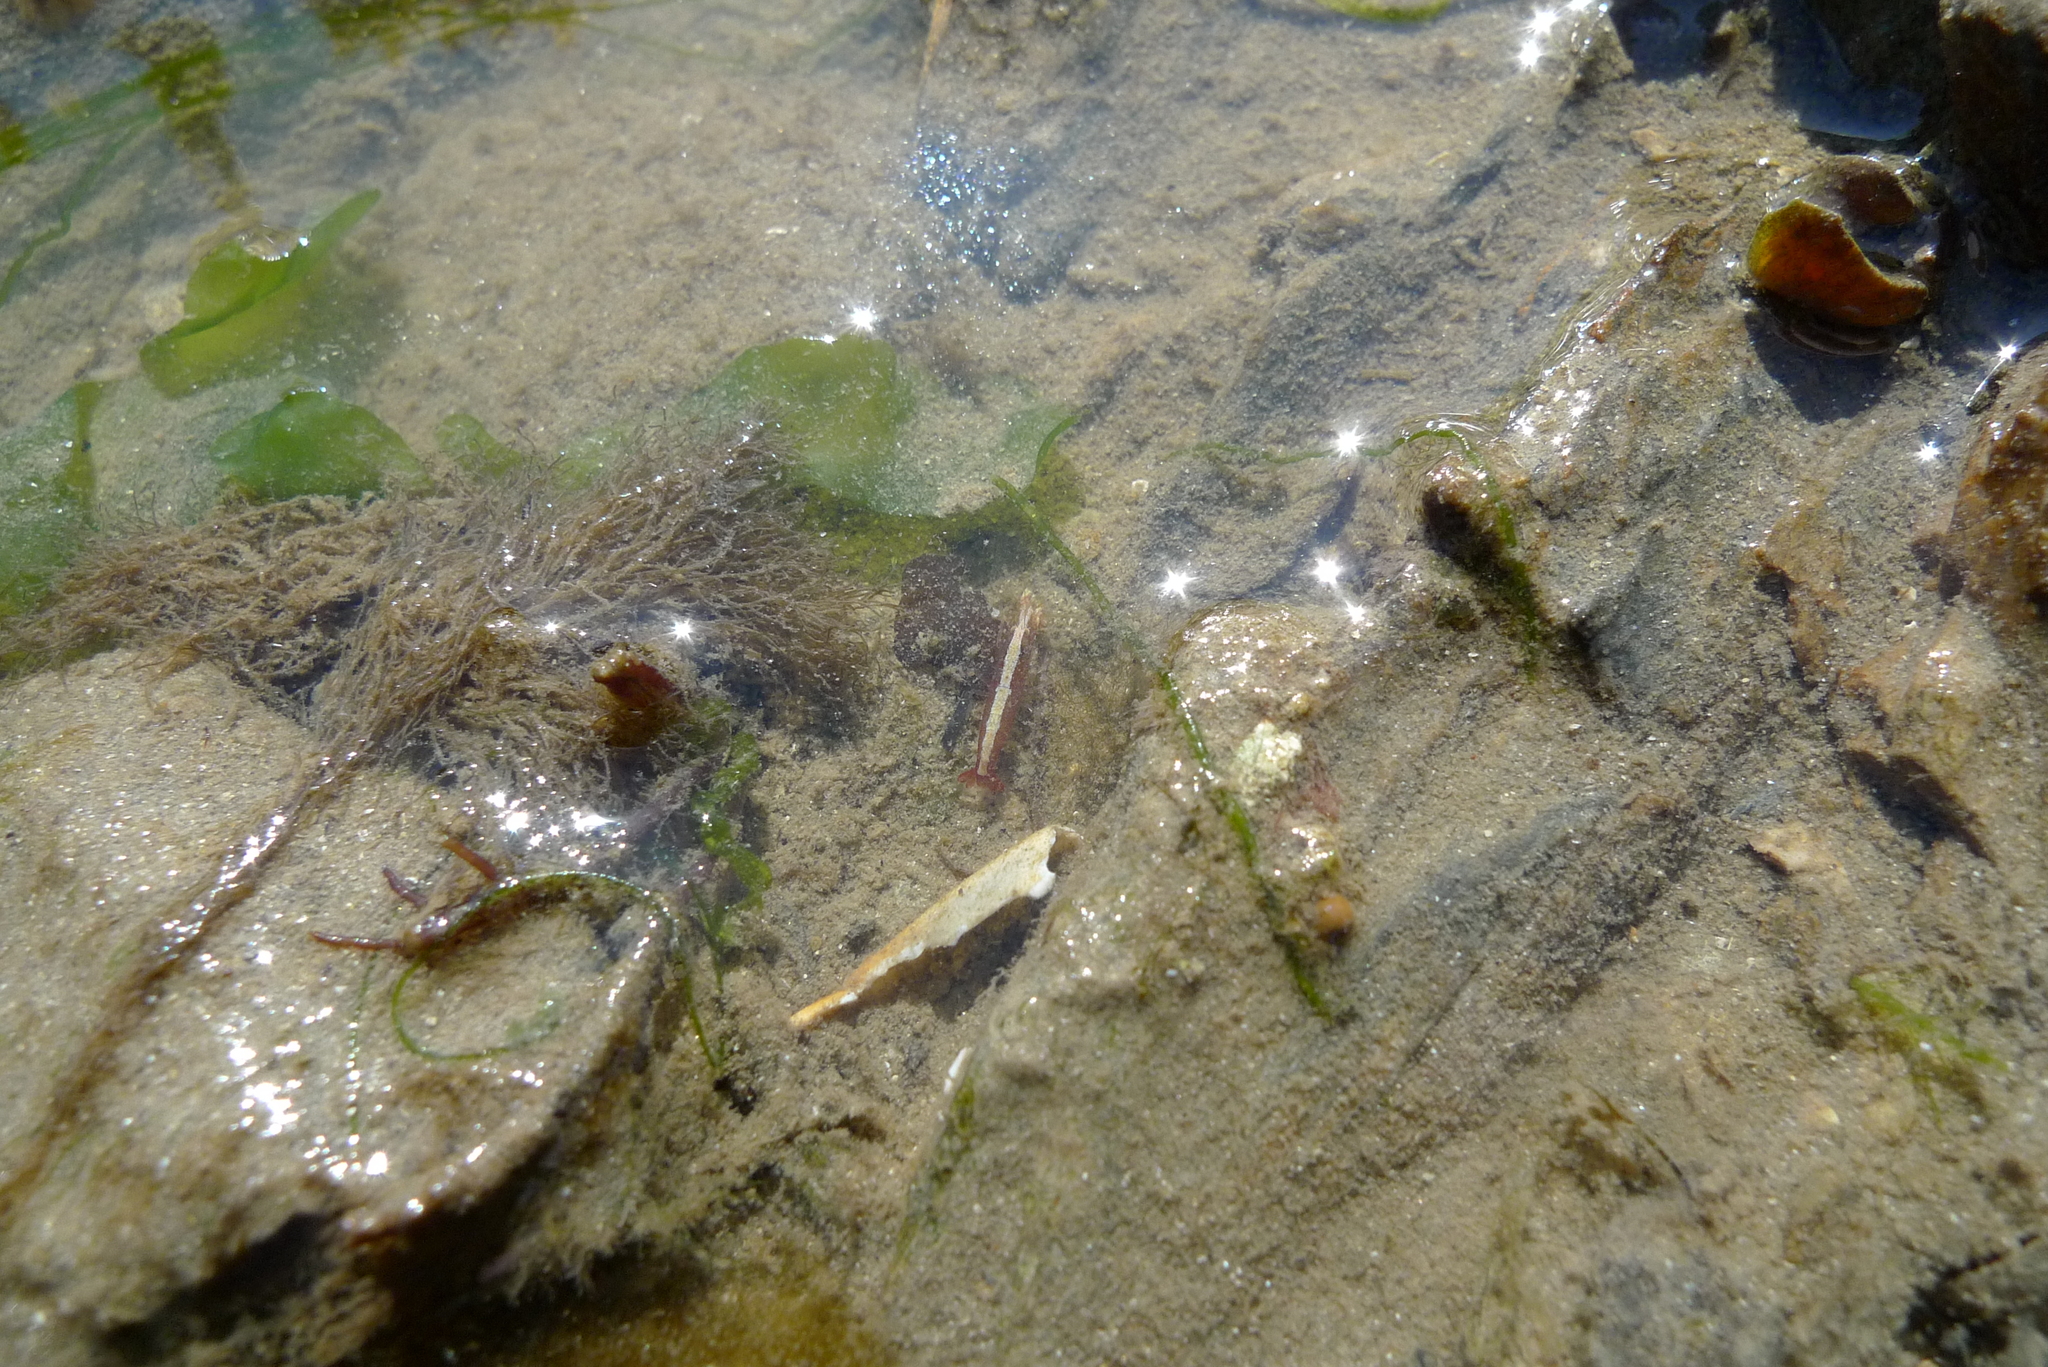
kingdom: Animalia
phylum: Arthropoda
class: Malacostraca
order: Decapoda
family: Alpheidae
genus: Athanas
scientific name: Athanas nitescens
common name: Hooded shrimp
